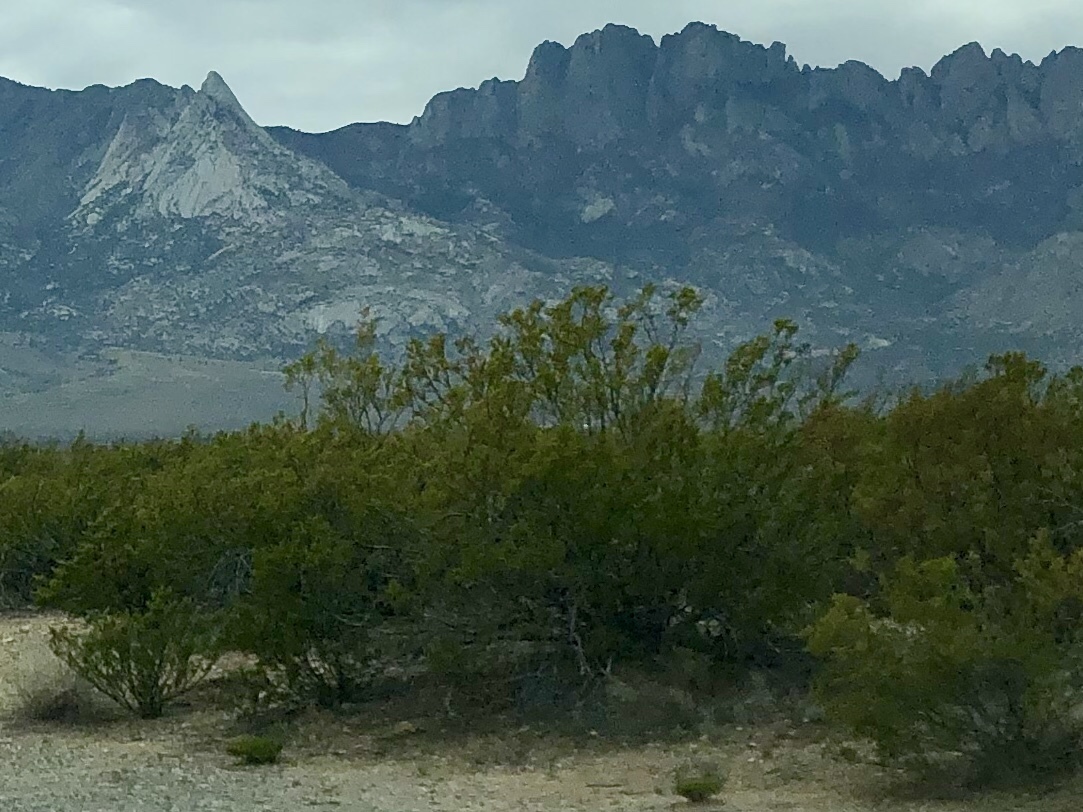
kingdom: Plantae
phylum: Tracheophyta
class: Magnoliopsida
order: Zygophyllales
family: Zygophyllaceae
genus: Larrea
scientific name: Larrea tridentata
